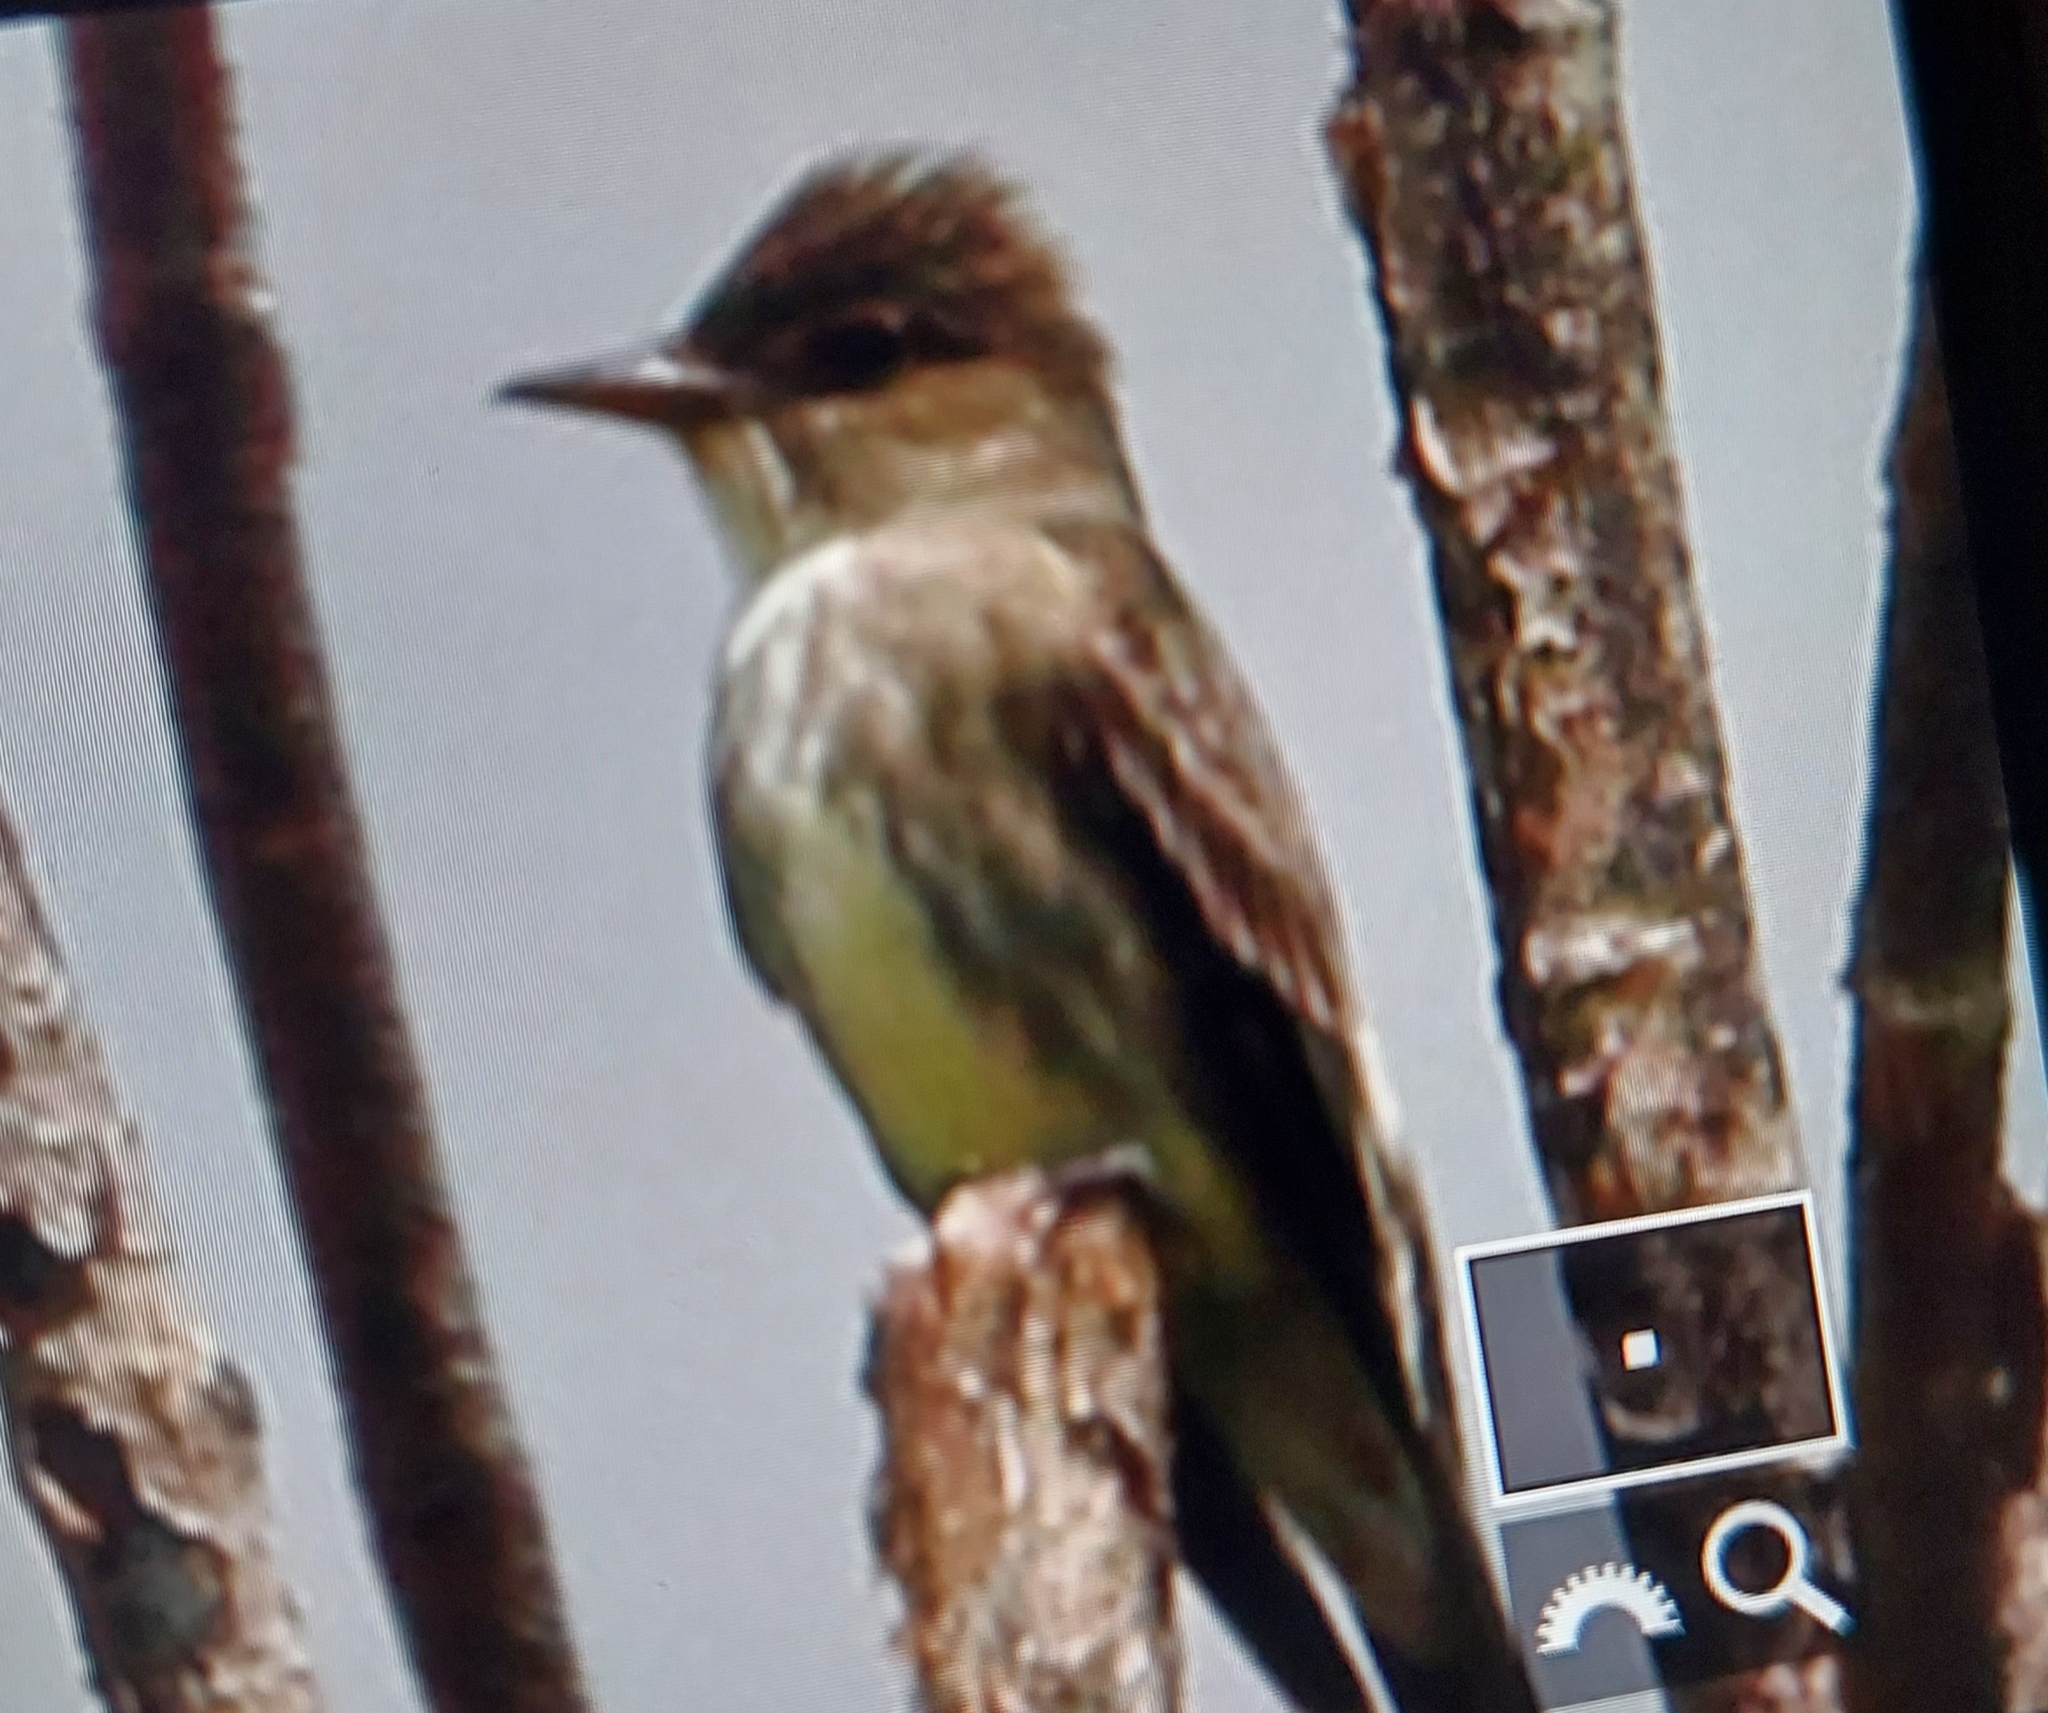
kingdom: Animalia
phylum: Chordata
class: Aves
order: Passeriformes
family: Tyrannidae
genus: Contopus
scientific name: Contopus cooperi
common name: Olive-sided flycatcher
